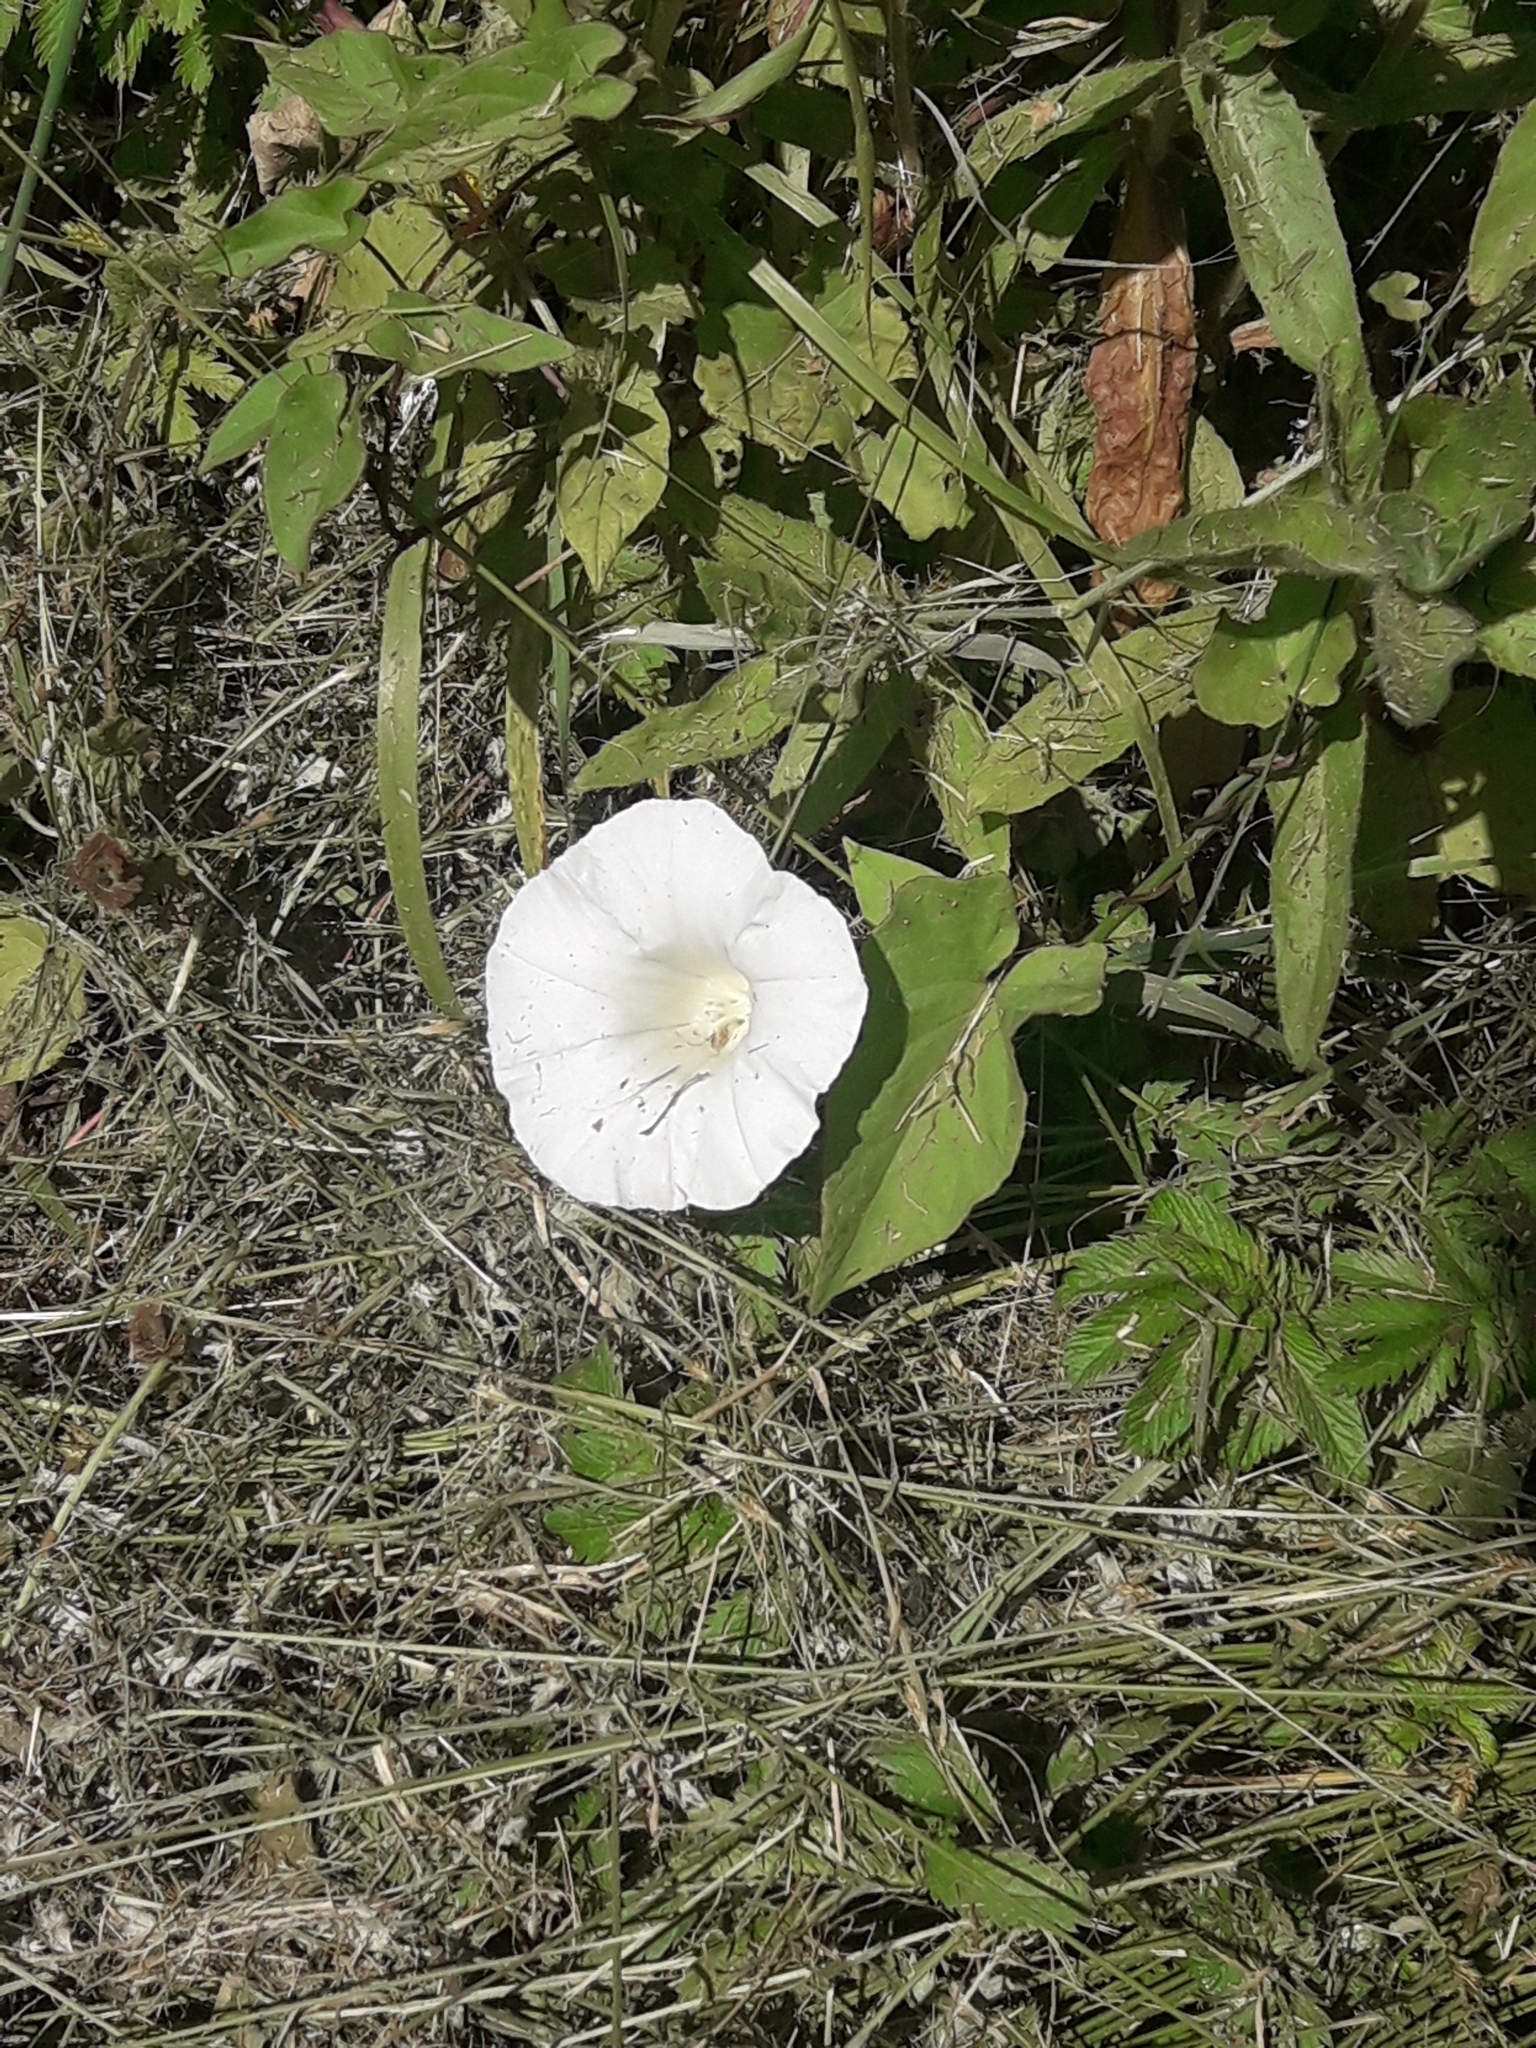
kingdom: Plantae
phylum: Tracheophyta
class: Magnoliopsida
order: Solanales
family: Convolvulaceae
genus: Calystegia
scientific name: Calystegia sepium
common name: Hedge bindweed
